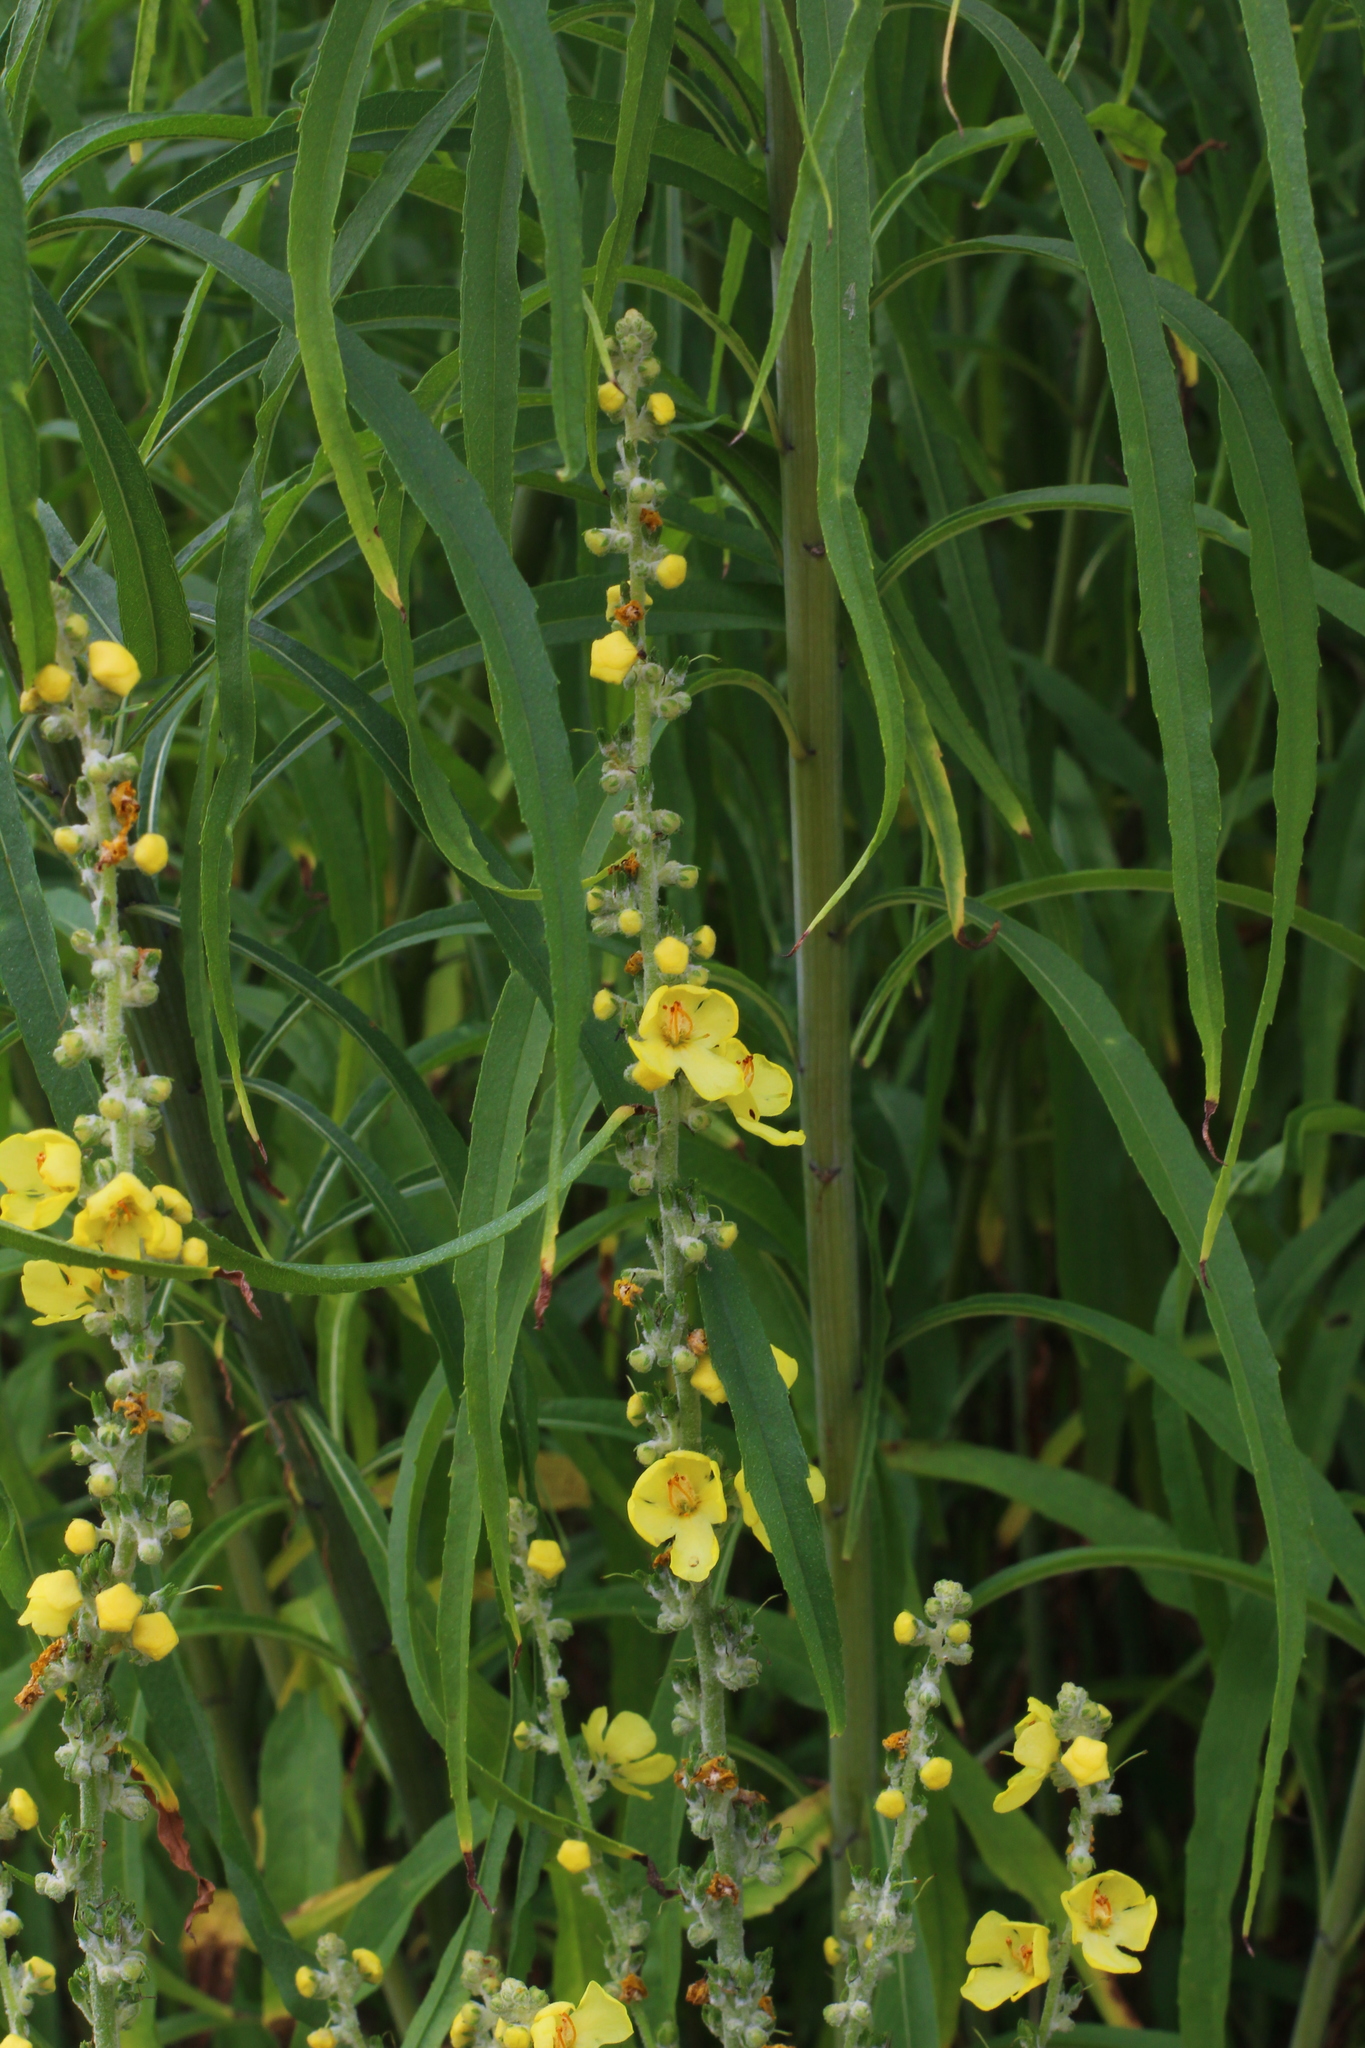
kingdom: Plantae
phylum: Tracheophyta
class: Magnoliopsida
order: Lamiales
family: Scrophulariaceae
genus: Verbascum
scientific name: Verbascum pulverulentum
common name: Broad-leaf mullein
